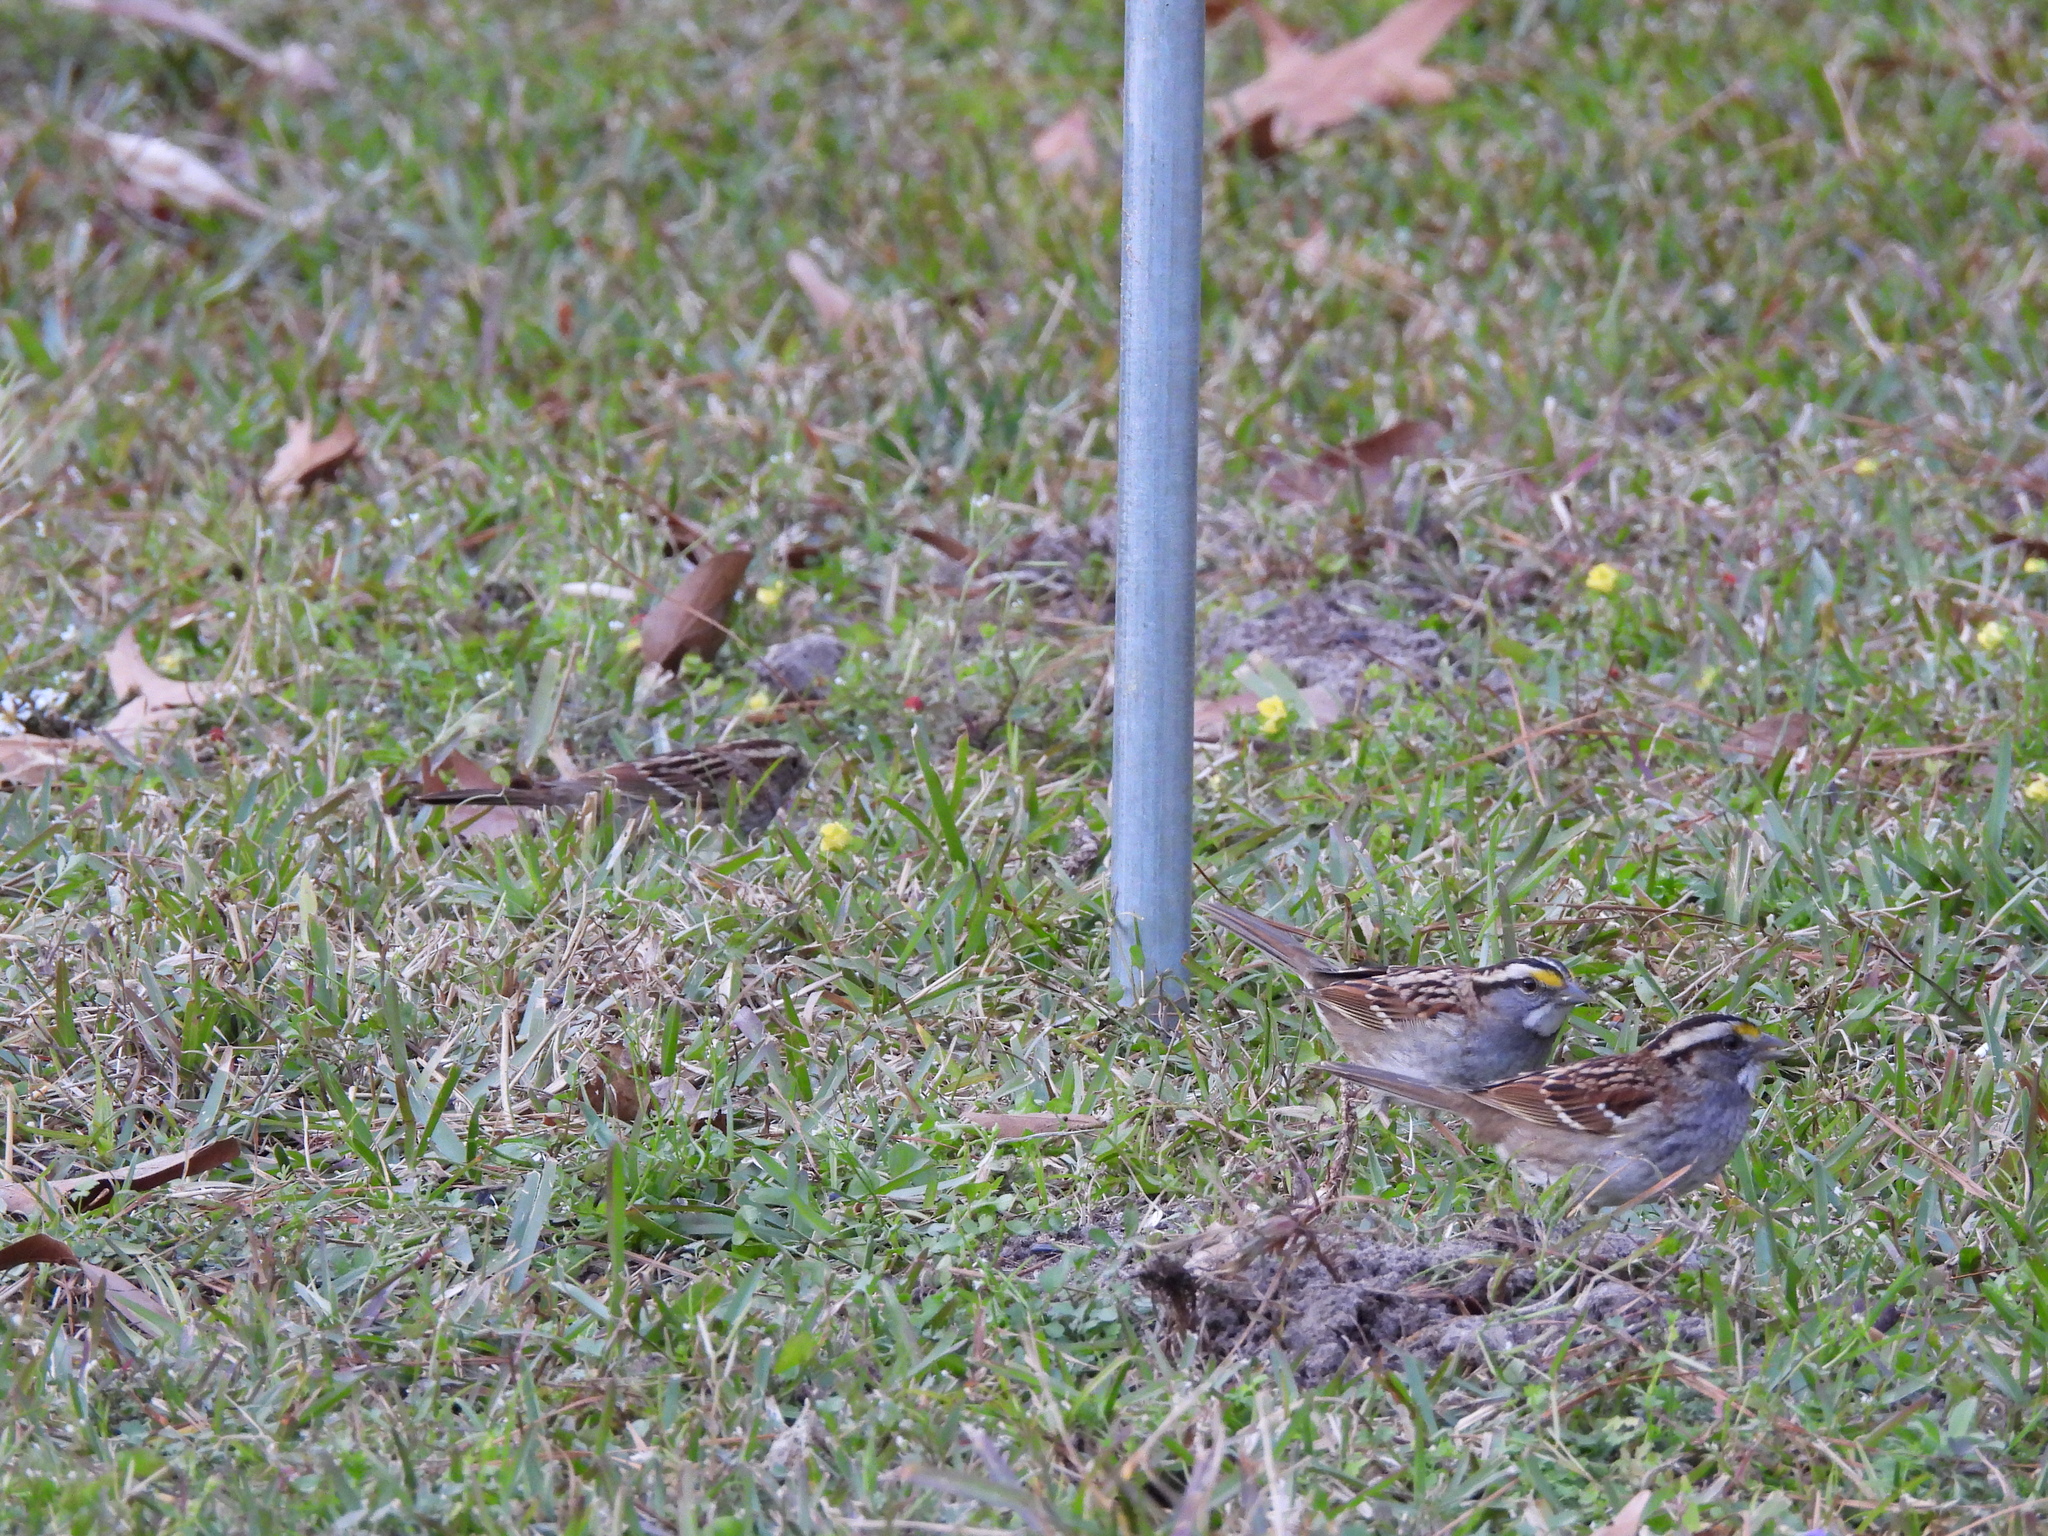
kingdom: Animalia
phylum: Chordata
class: Aves
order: Passeriformes
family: Passerellidae
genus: Zonotrichia
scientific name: Zonotrichia albicollis
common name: White-throated sparrow
